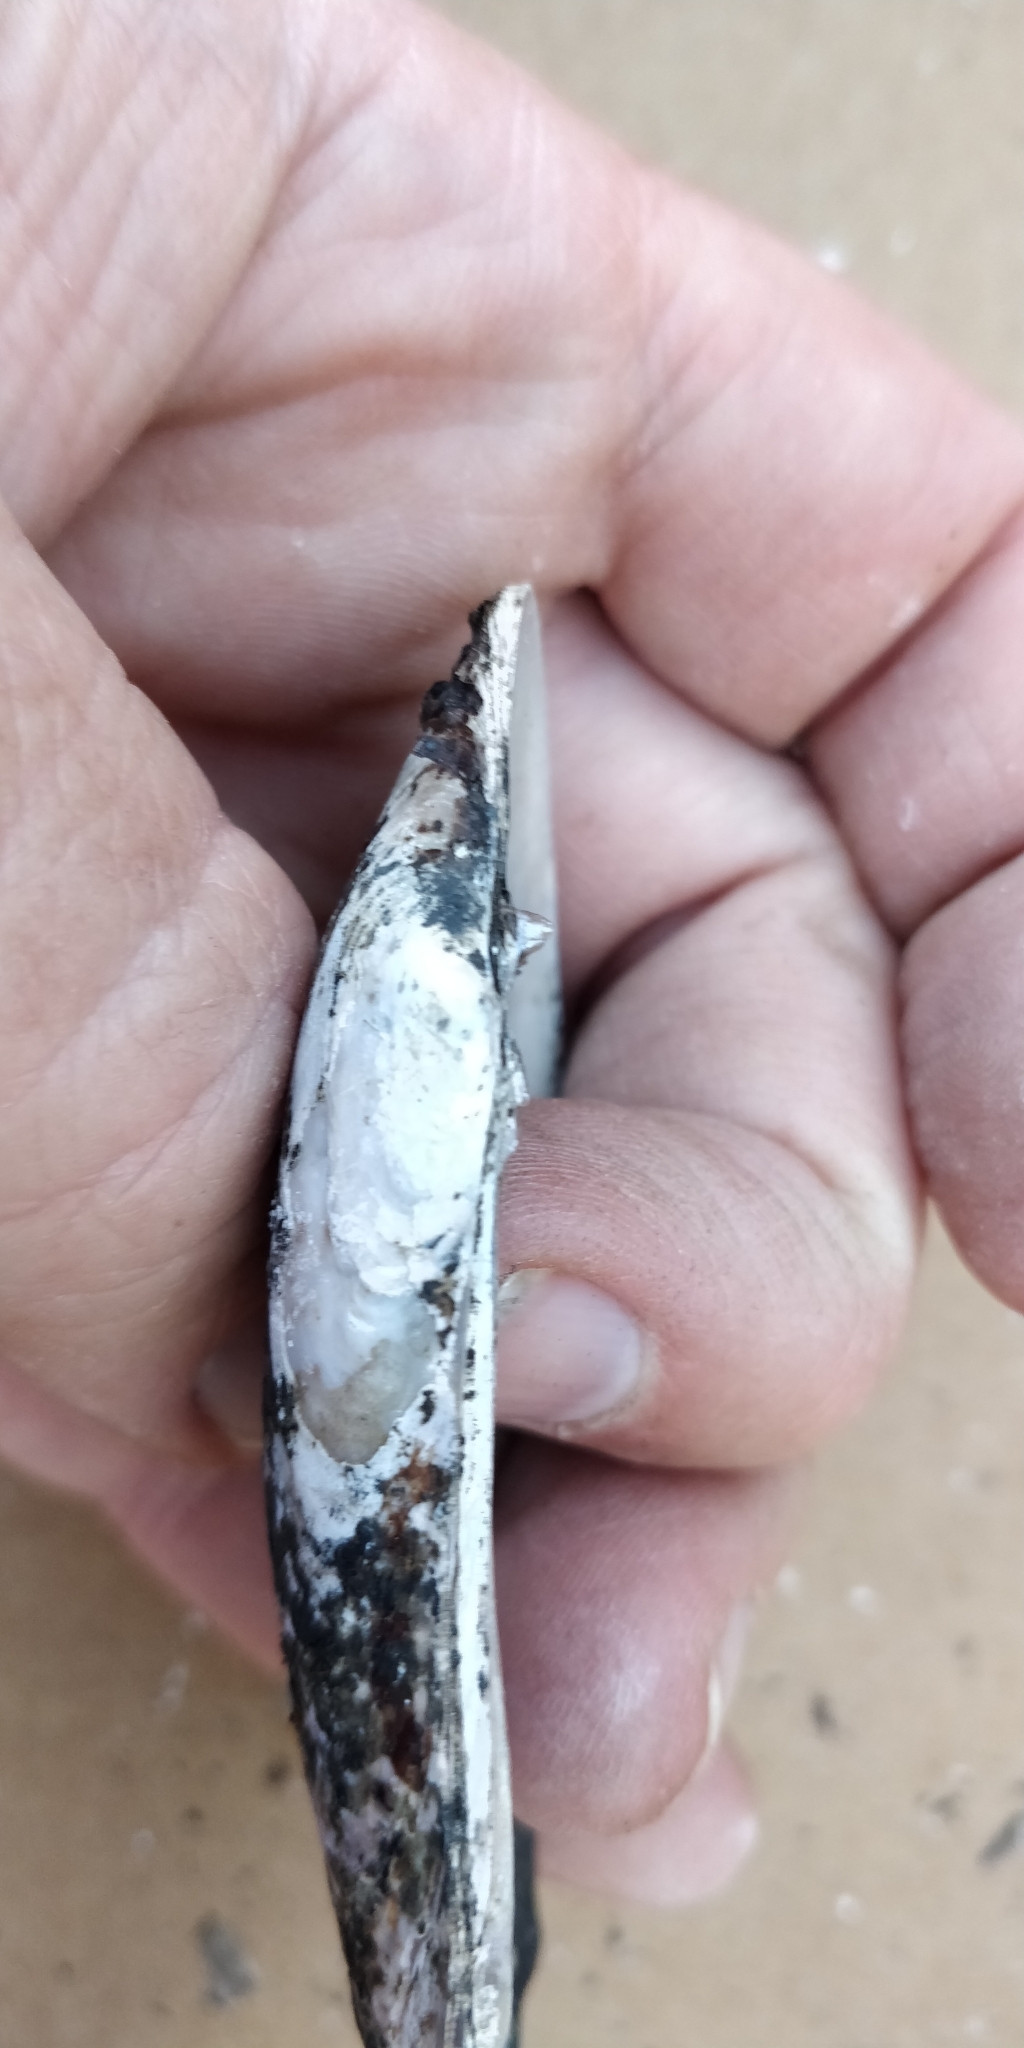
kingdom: Animalia
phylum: Mollusca
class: Bivalvia
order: Unionida
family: Unionidae
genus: Ligumia
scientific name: Ligumia recta
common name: Black sandshell
